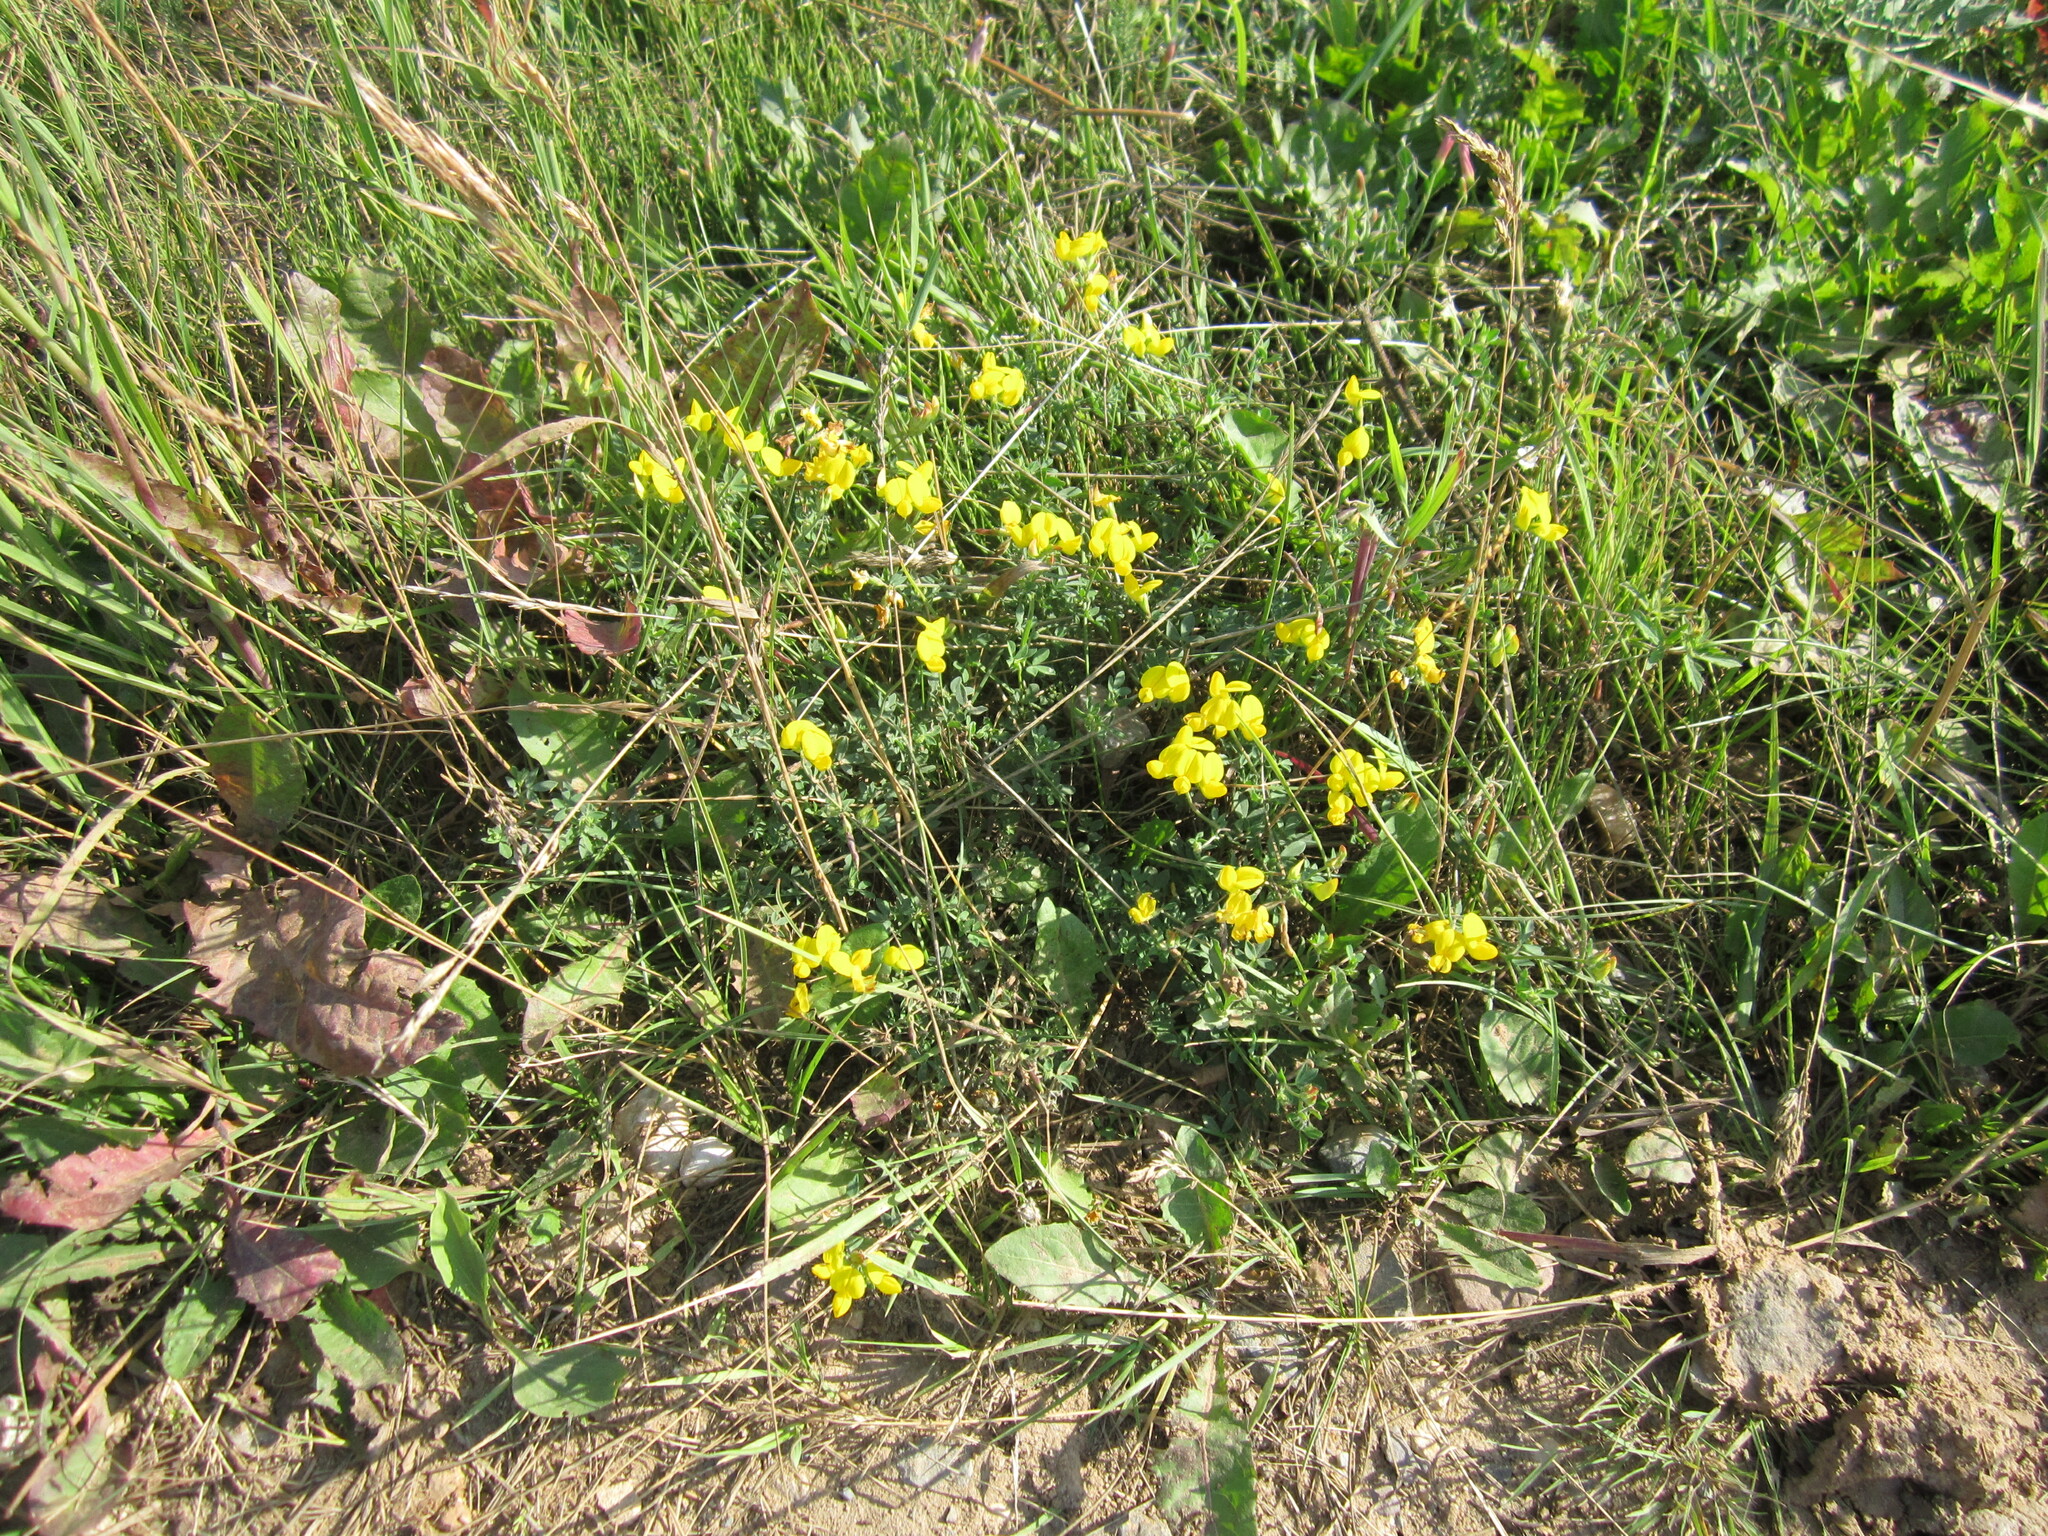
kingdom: Plantae
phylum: Tracheophyta
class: Magnoliopsida
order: Fabales
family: Fabaceae
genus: Lotus
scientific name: Lotus corniculatus
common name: Common bird's-foot-trefoil
